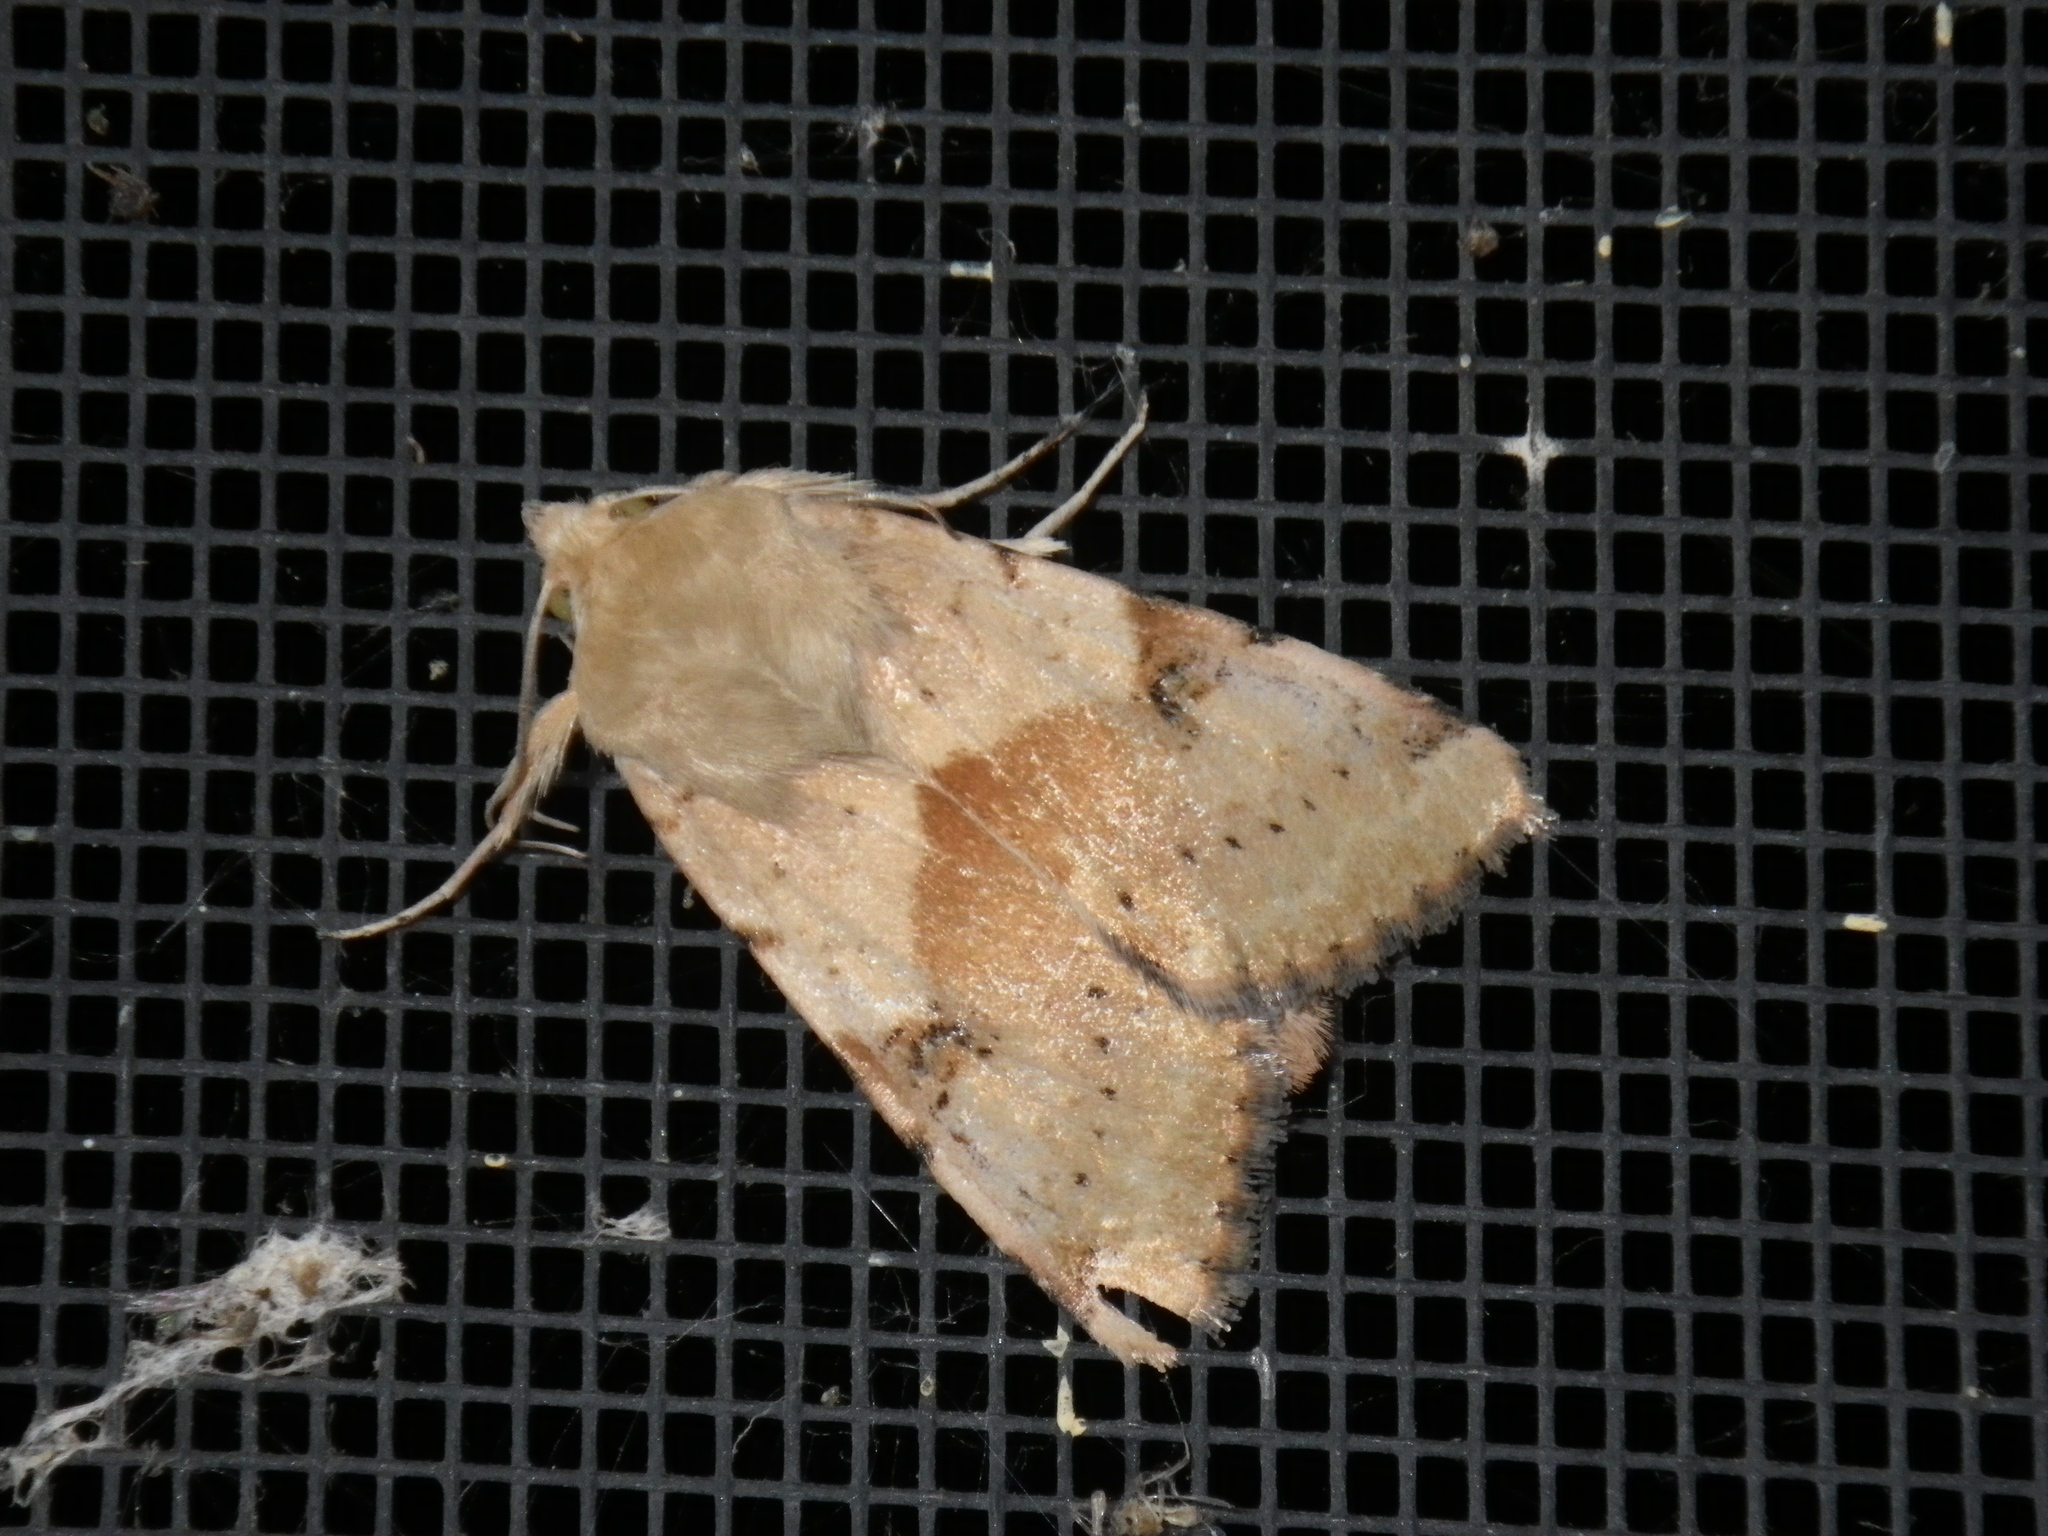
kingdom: Animalia
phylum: Arthropoda
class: Insecta
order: Lepidoptera
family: Noctuidae
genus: Heliothis
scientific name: Heliothis phloxiphaga
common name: Darker spotted straw moth
